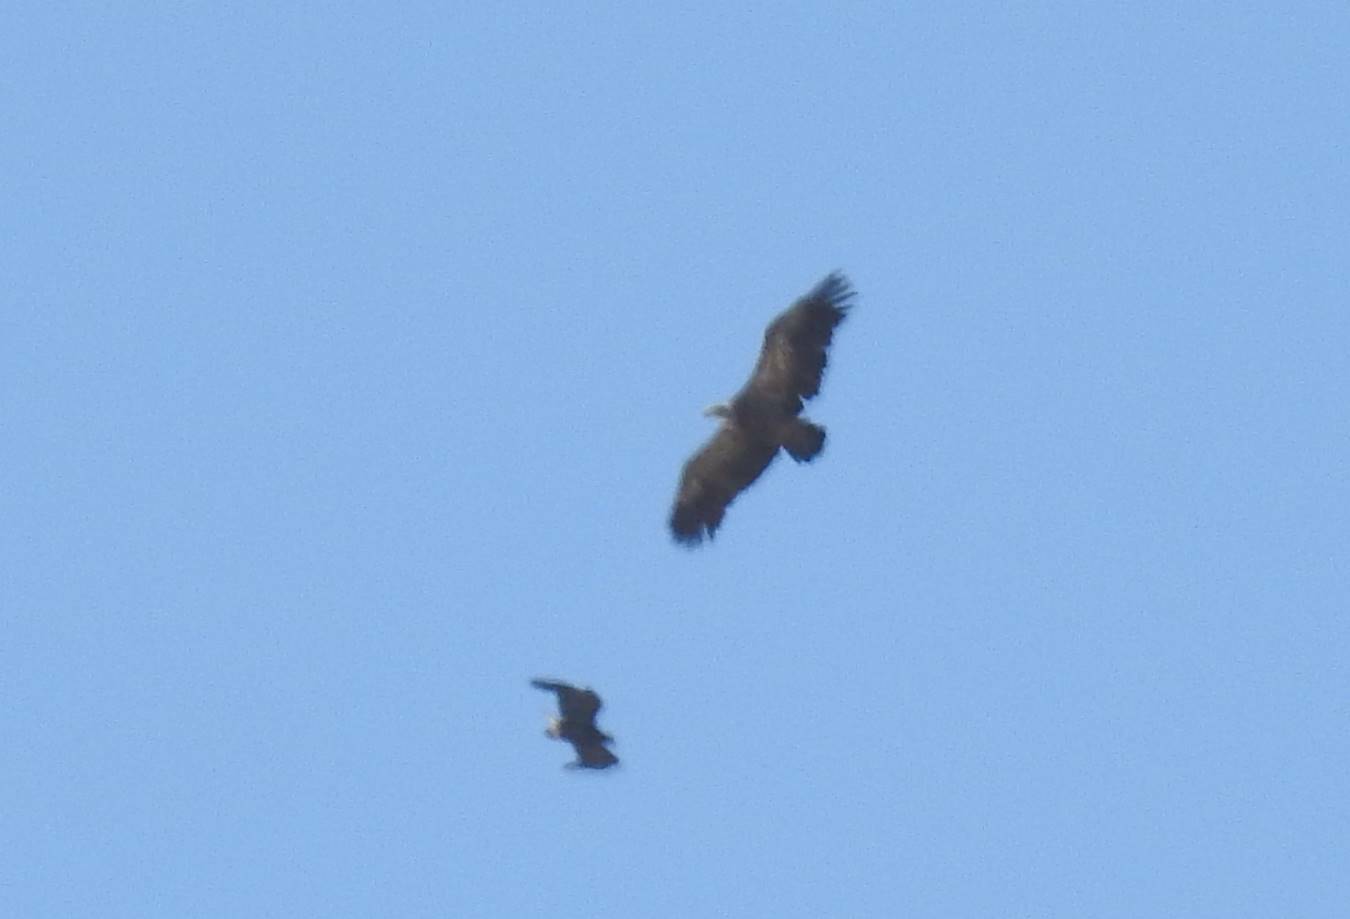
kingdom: Animalia
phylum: Chordata
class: Aves
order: Accipitriformes
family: Accipitridae
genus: Gyps
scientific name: Gyps fulvus
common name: Griffon vulture
